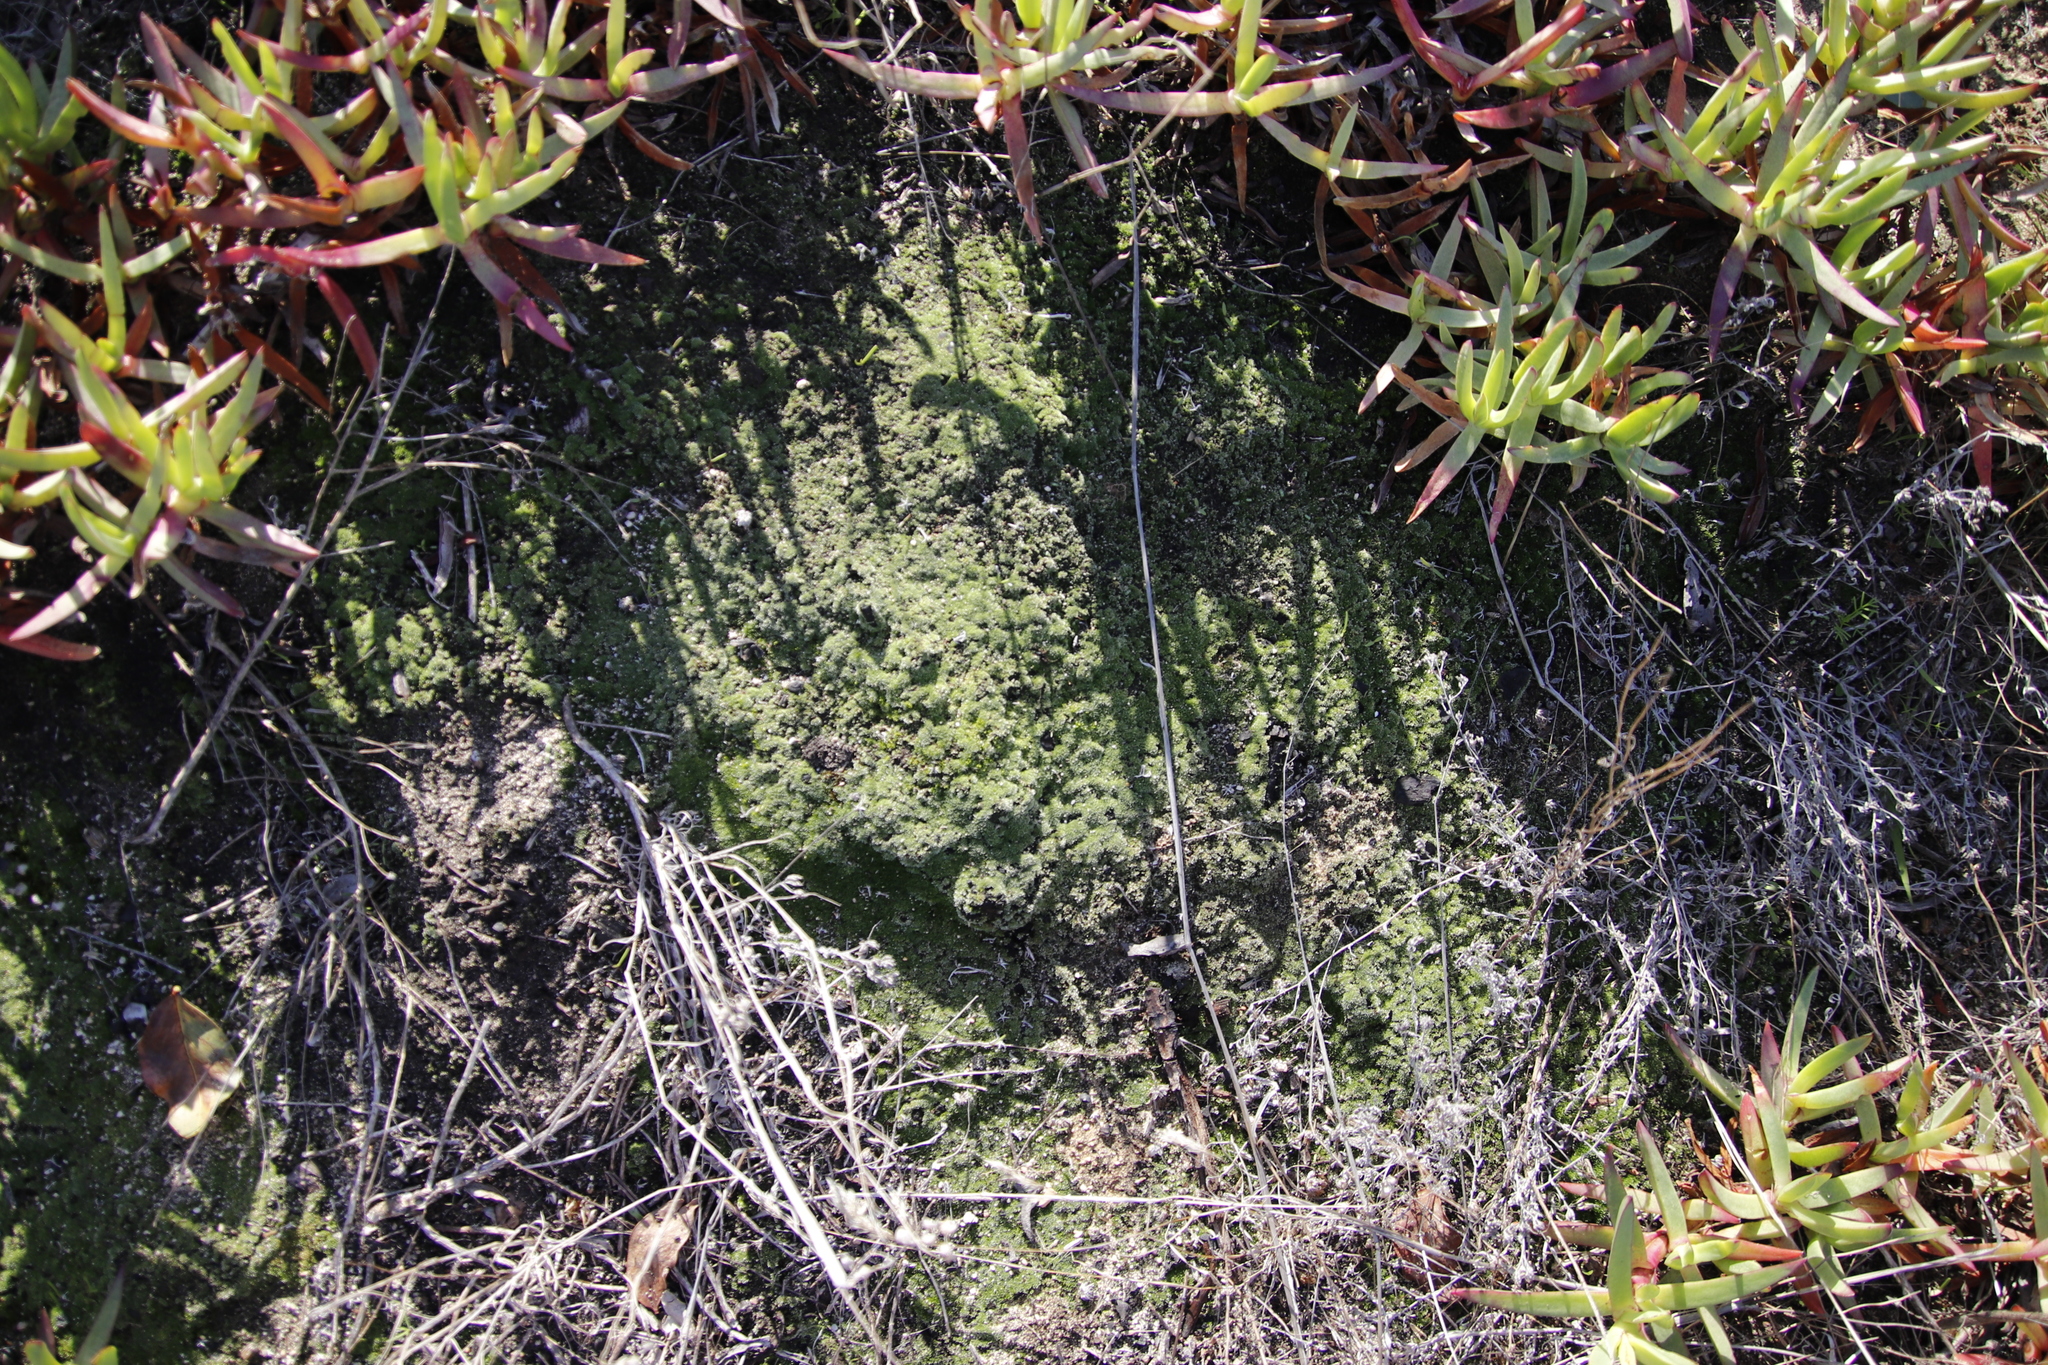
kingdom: Plantae
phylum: Bryophyta
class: Bryopsida
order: Bryales
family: Bryaceae
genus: Bryum
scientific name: Bryum argenteum
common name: Silver-moss
